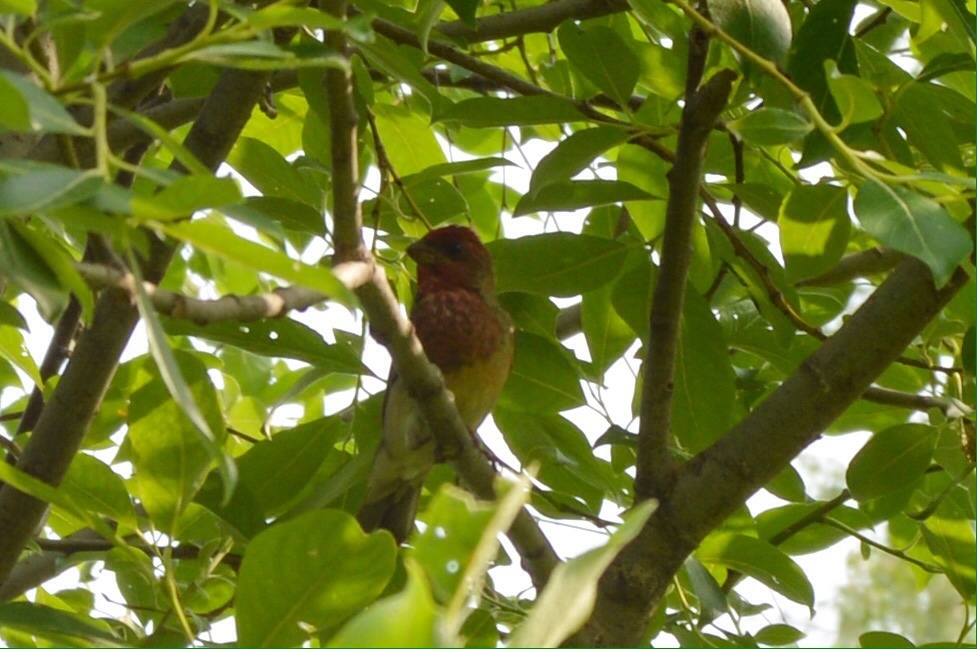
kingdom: Animalia
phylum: Chordata
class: Aves
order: Passeriformes
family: Fringillidae
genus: Carpodacus
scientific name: Carpodacus erythrinus
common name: Common rosefinch
